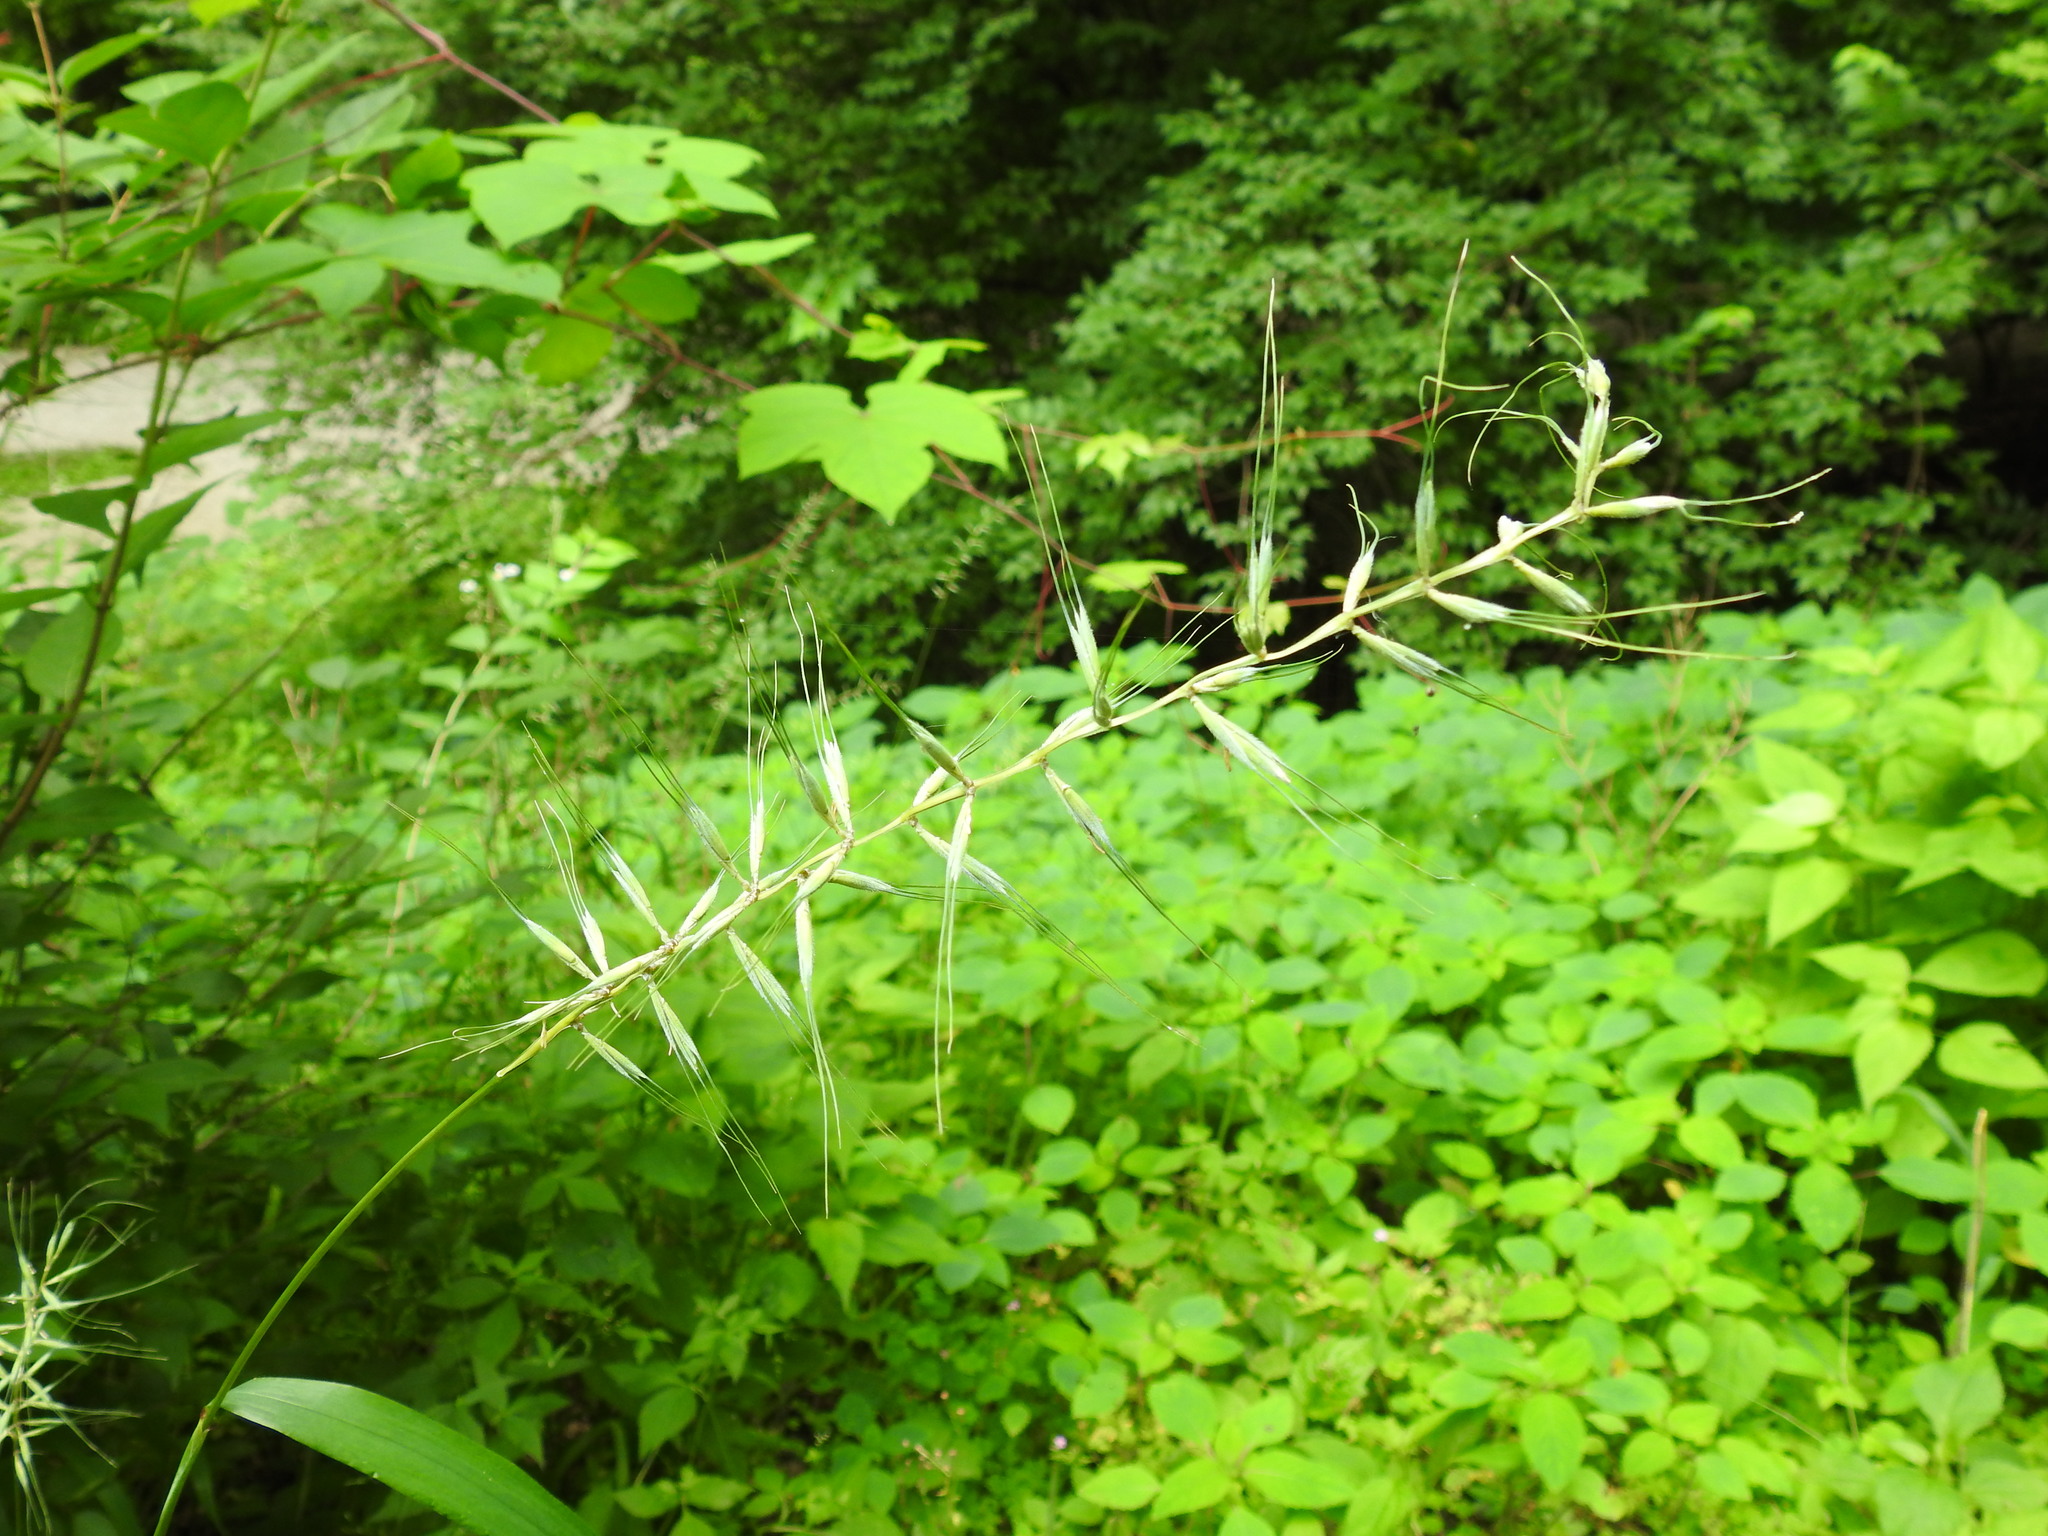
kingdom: Plantae
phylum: Tracheophyta
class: Liliopsida
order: Poales
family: Poaceae
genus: Elymus
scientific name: Elymus hystrix
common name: Bottlebrush grass
